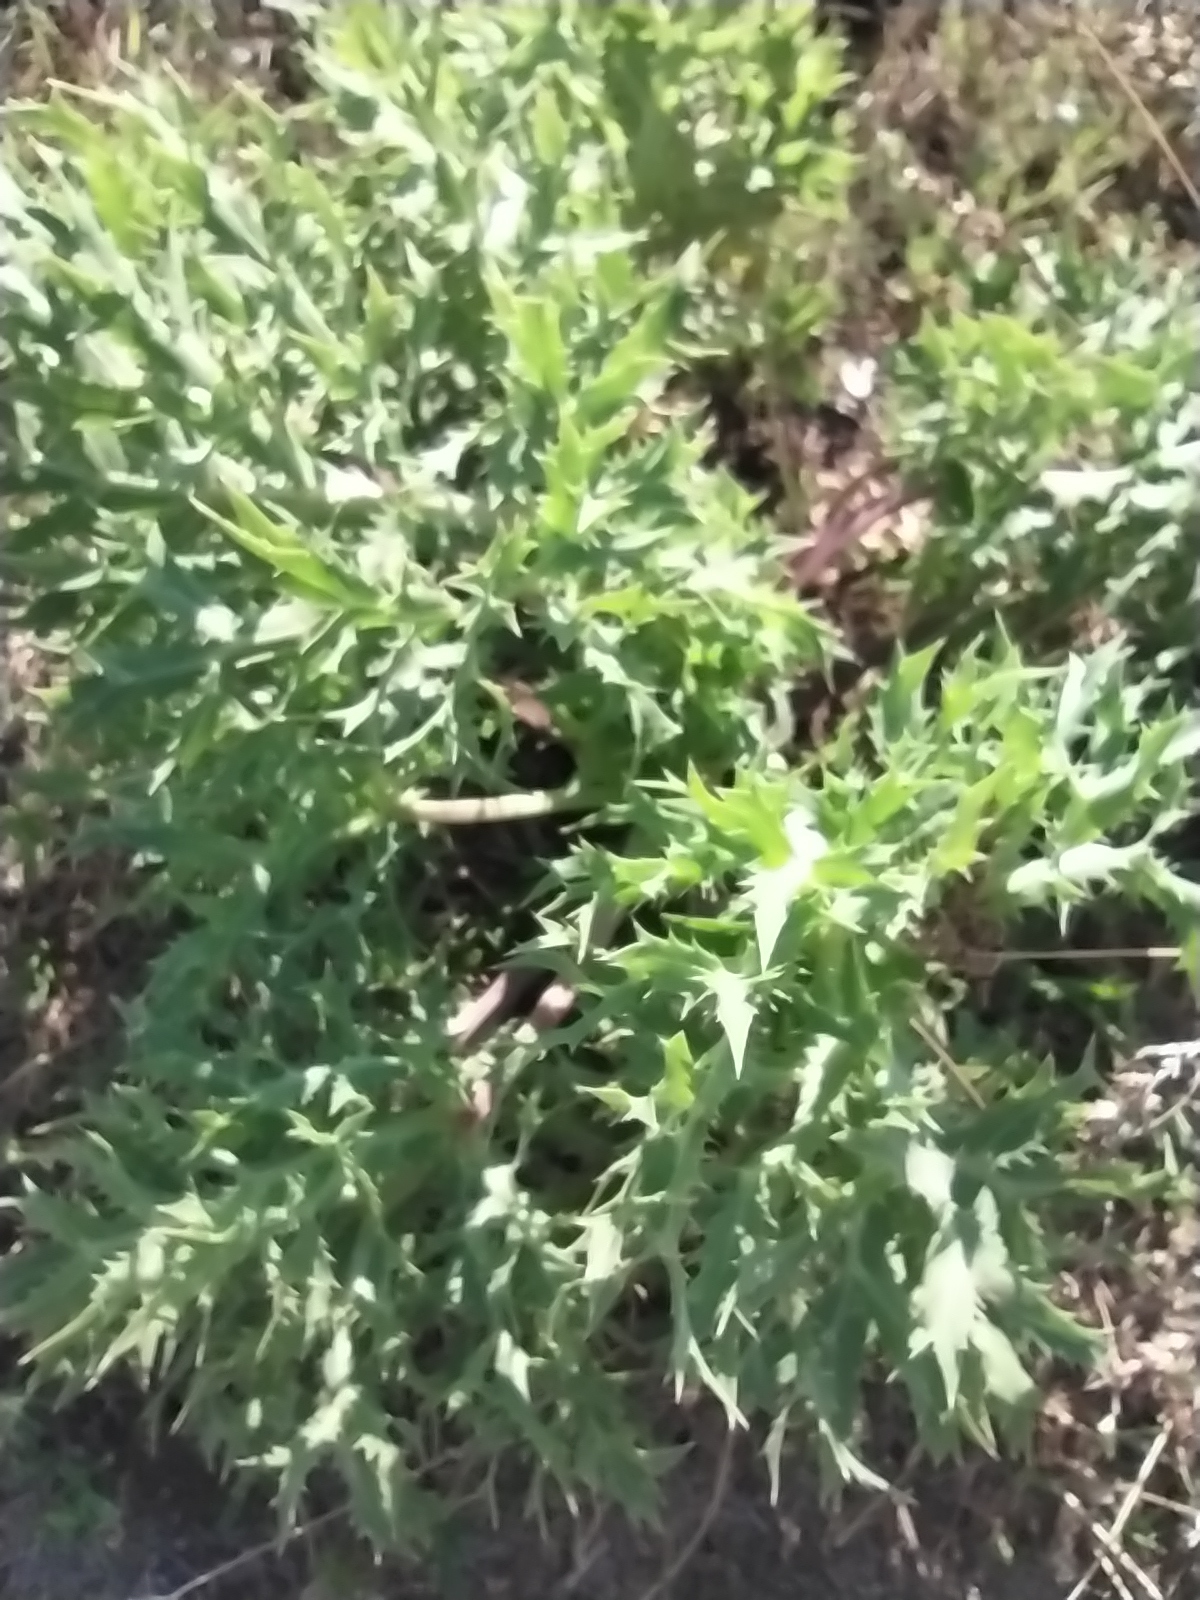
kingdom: Plantae
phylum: Tracheophyta
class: Magnoliopsida
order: Apiales
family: Apiaceae
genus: Eryngium
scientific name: Eryngium campestre
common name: Field eryngo
